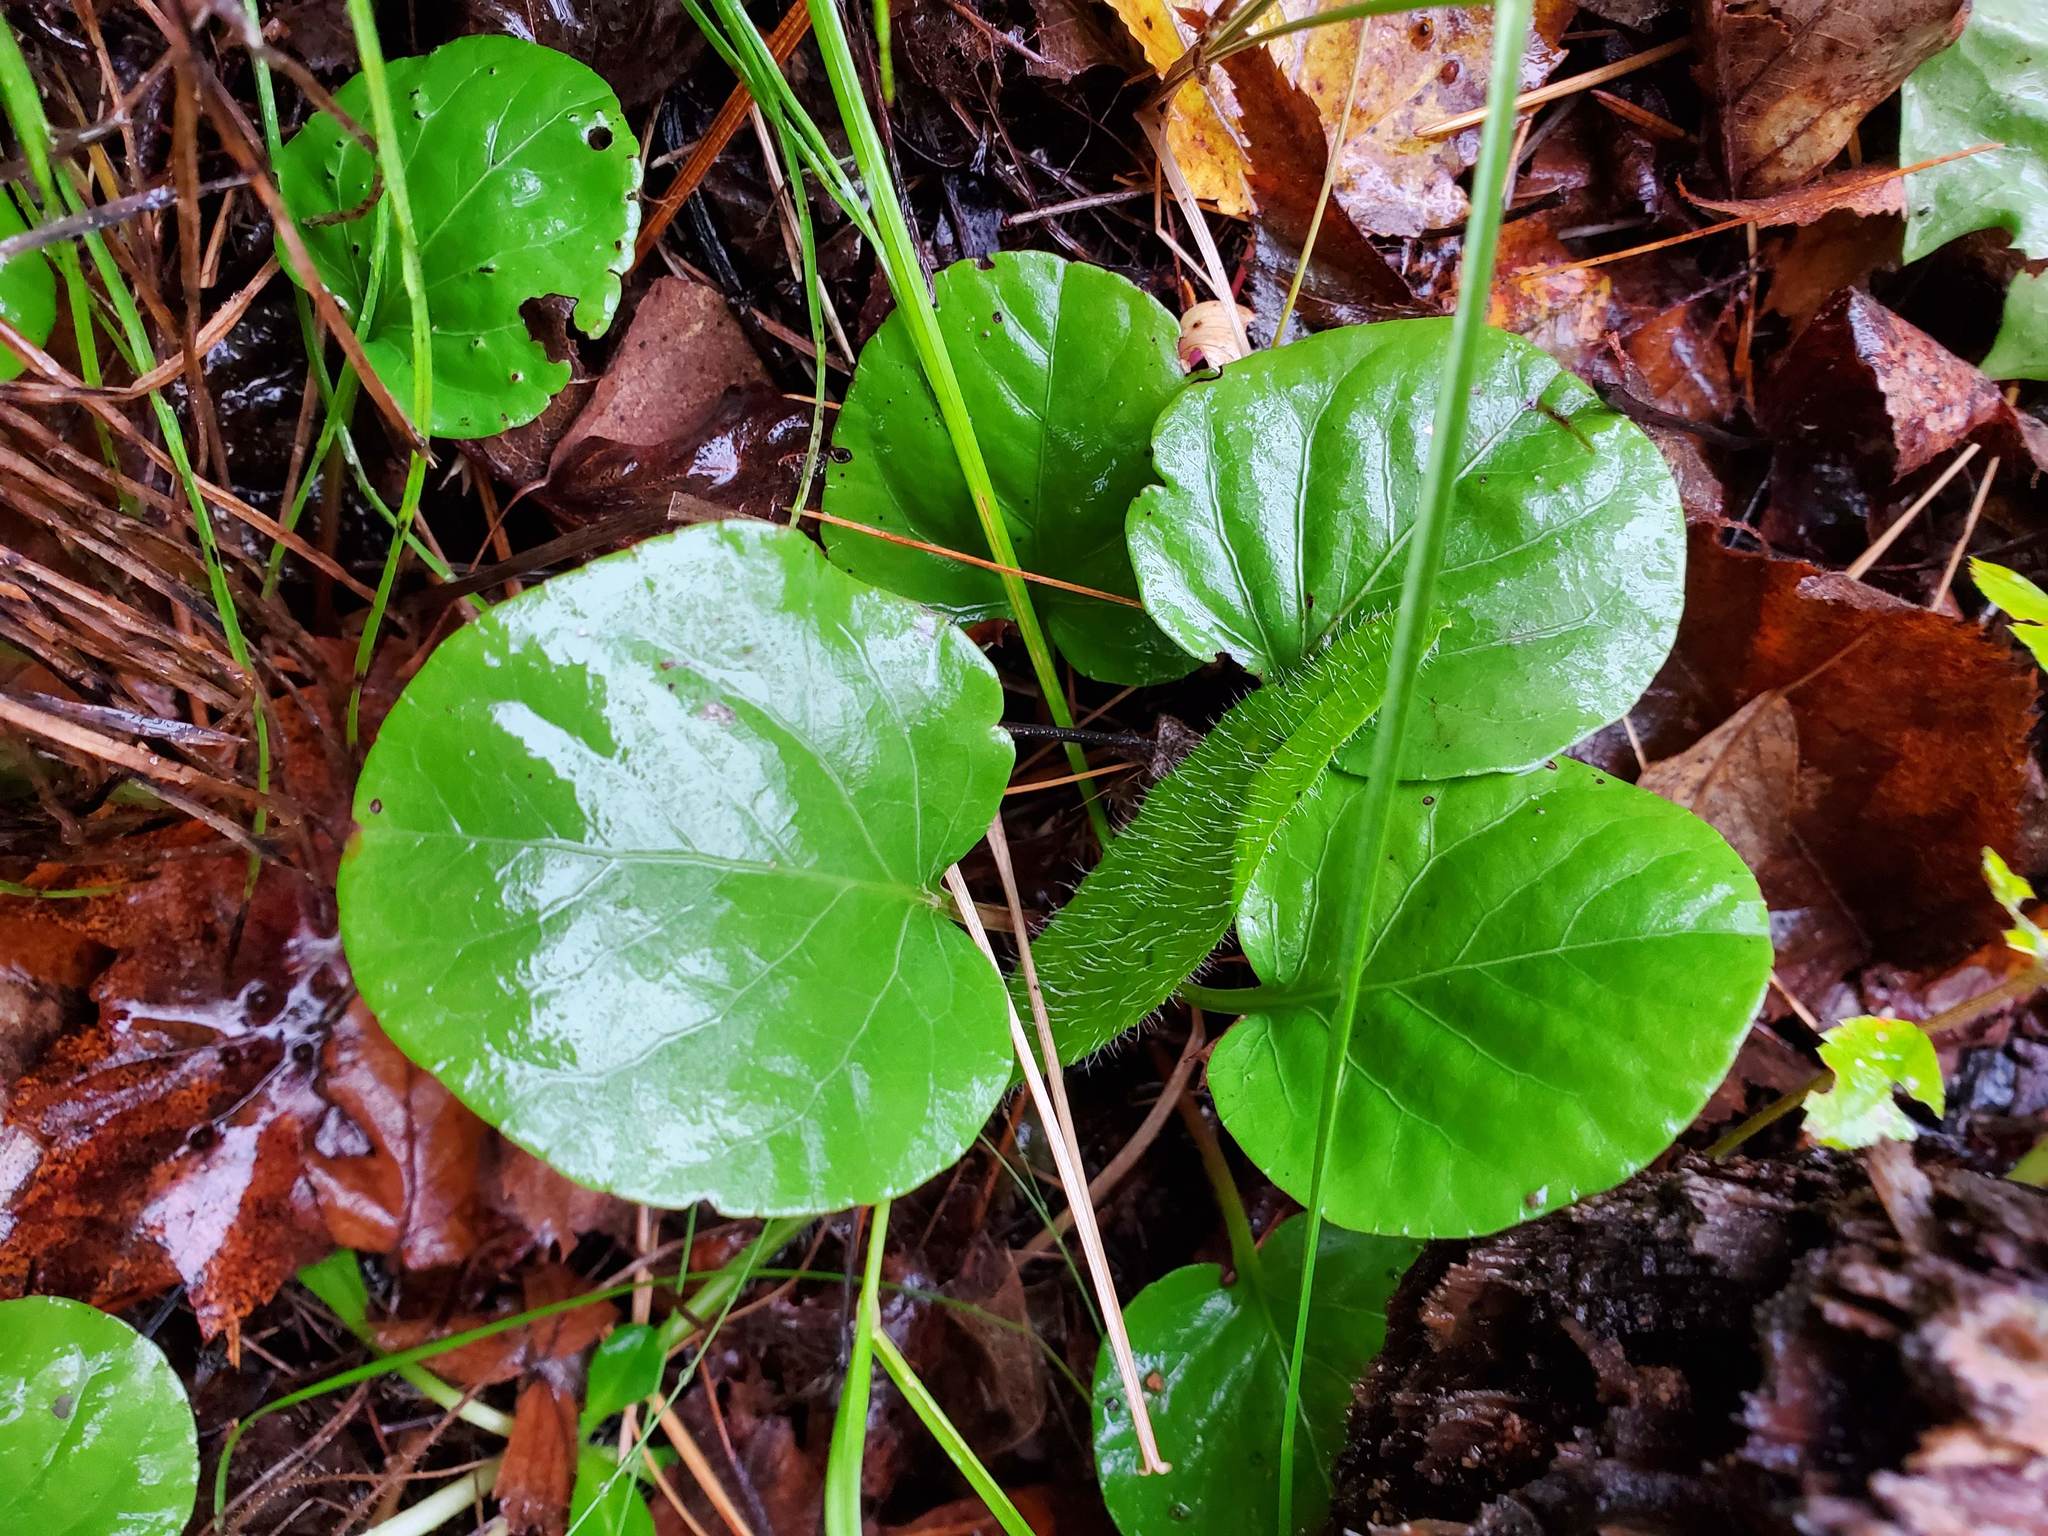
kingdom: Plantae
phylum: Tracheophyta
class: Magnoliopsida
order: Ericales
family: Ericaceae
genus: Pyrola
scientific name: Pyrola asarifolia
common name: Bog wintergreen
